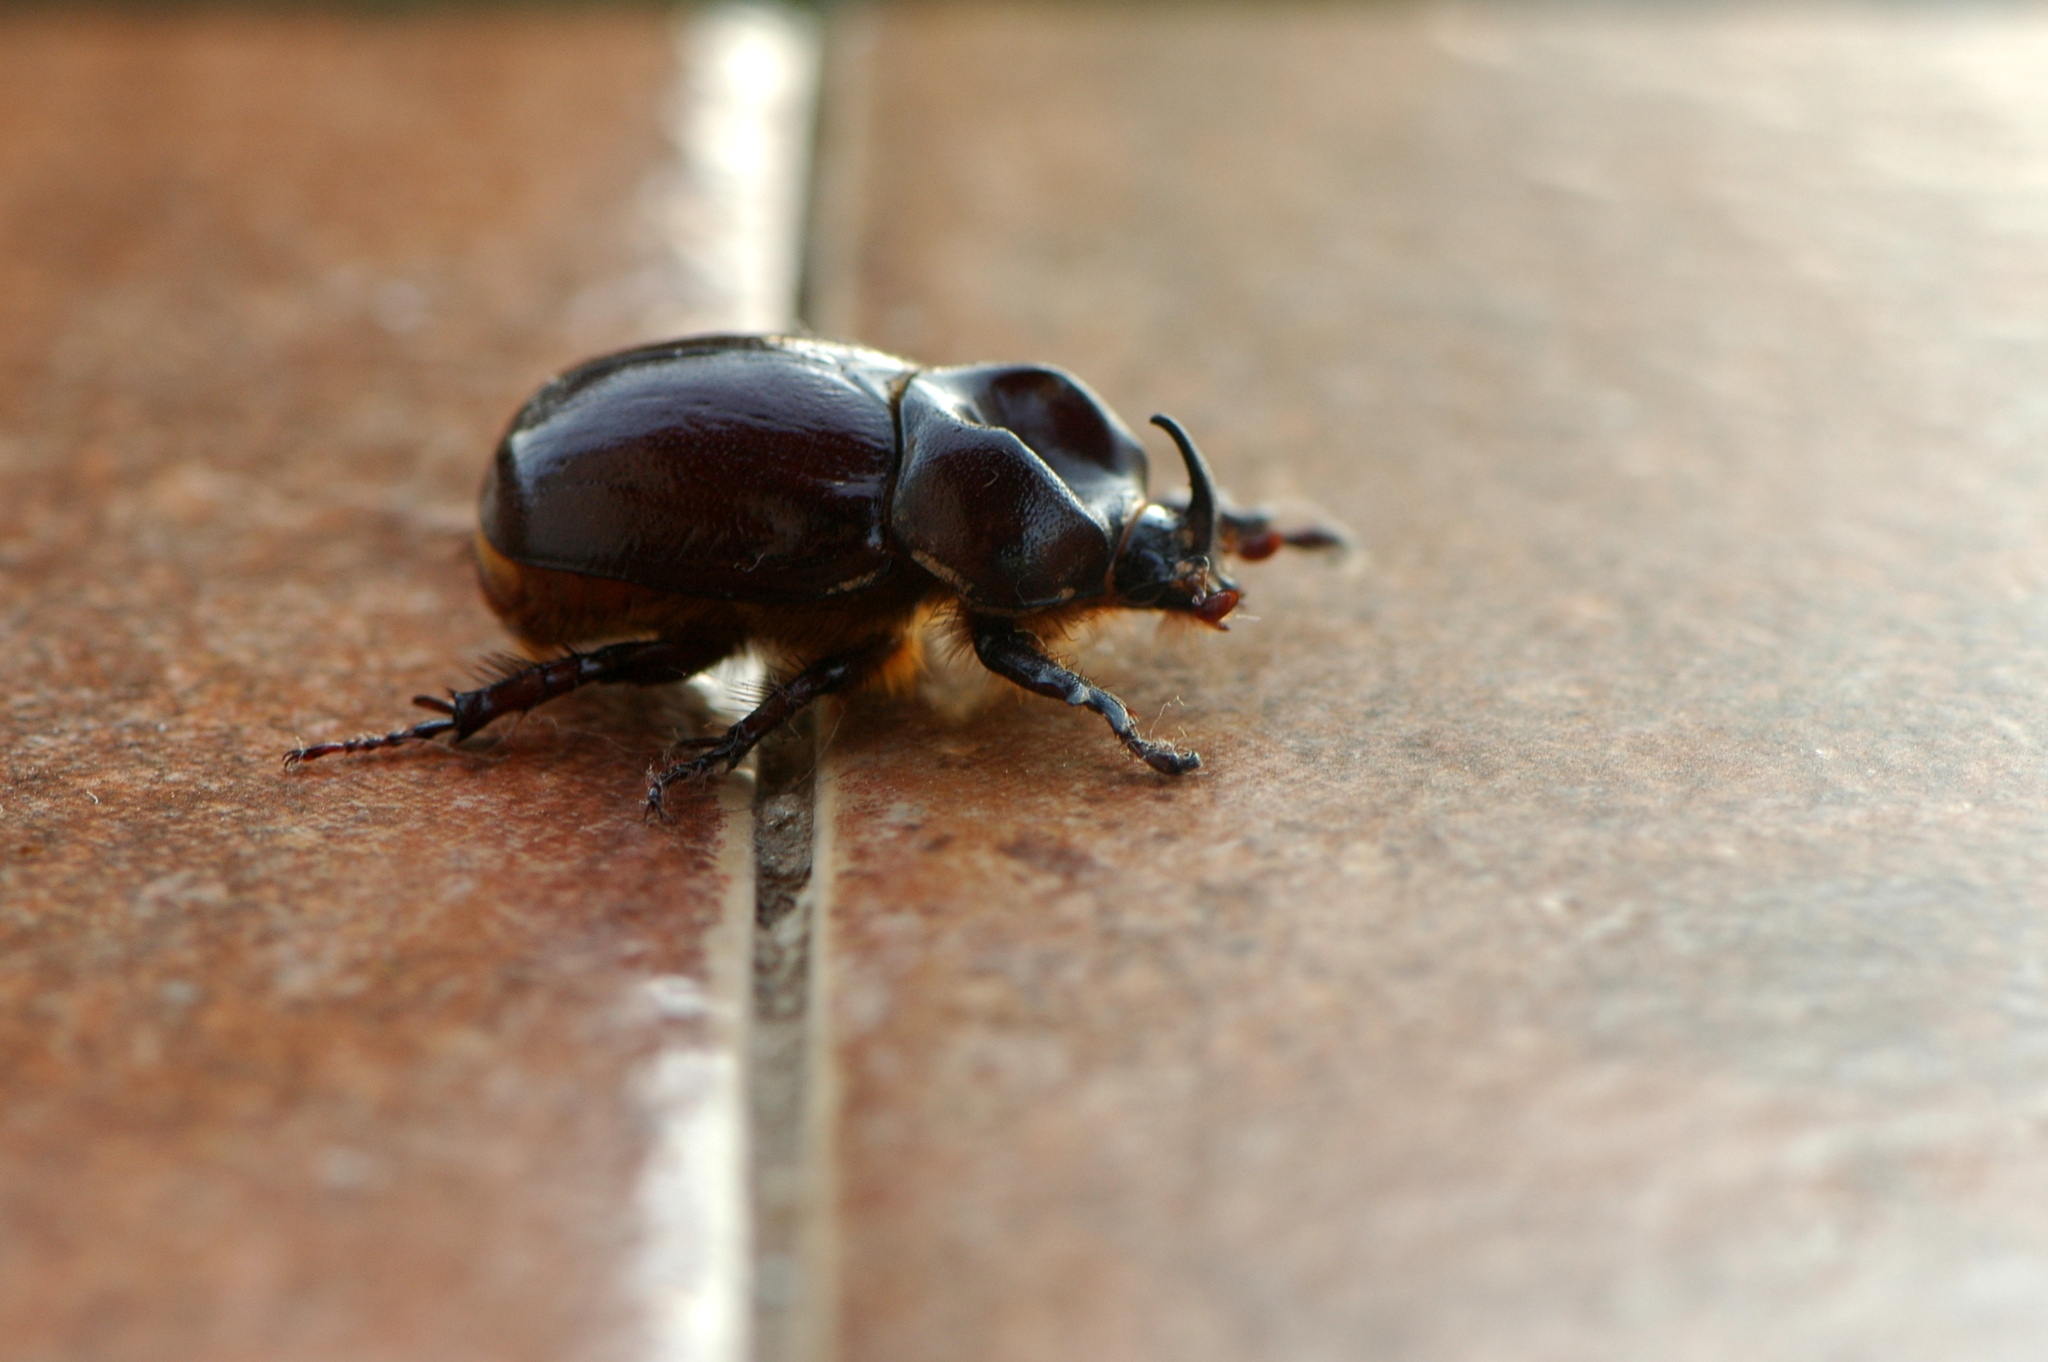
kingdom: Animalia
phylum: Arthropoda
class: Insecta
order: Coleoptera
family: Scarabaeidae
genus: Phyllognathus
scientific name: Phyllognathus excavatus
